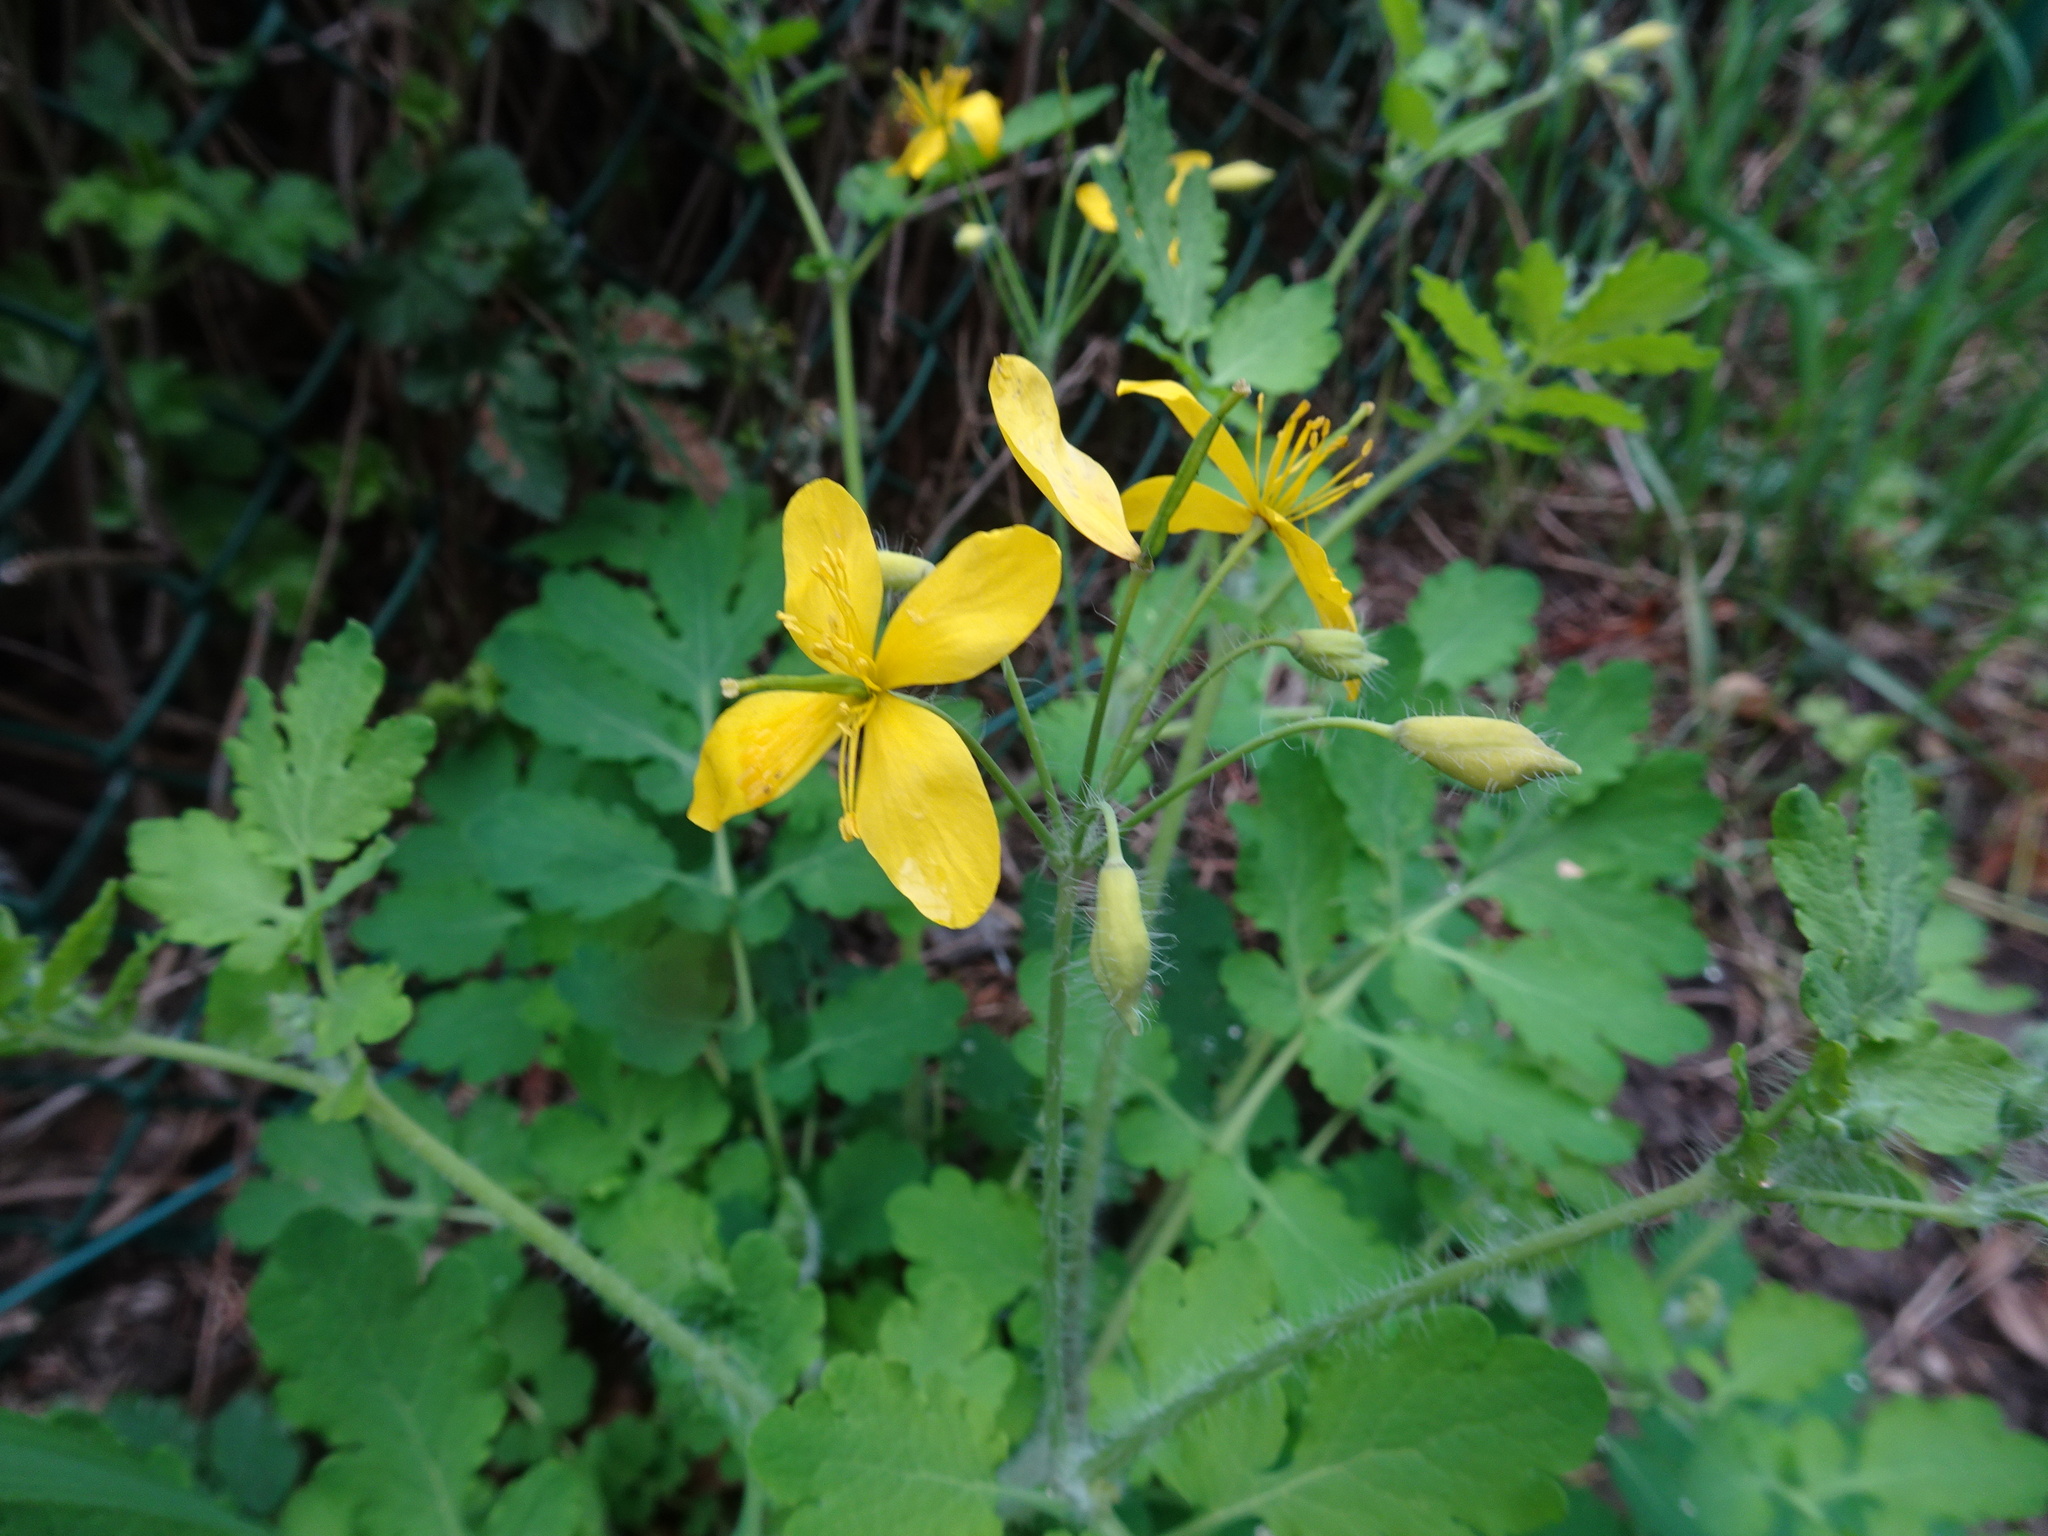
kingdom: Plantae
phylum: Tracheophyta
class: Magnoliopsida
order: Ranunculales
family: Papaveraceae
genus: Chelidonium
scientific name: Chelidonium majus
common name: Greater celandine
